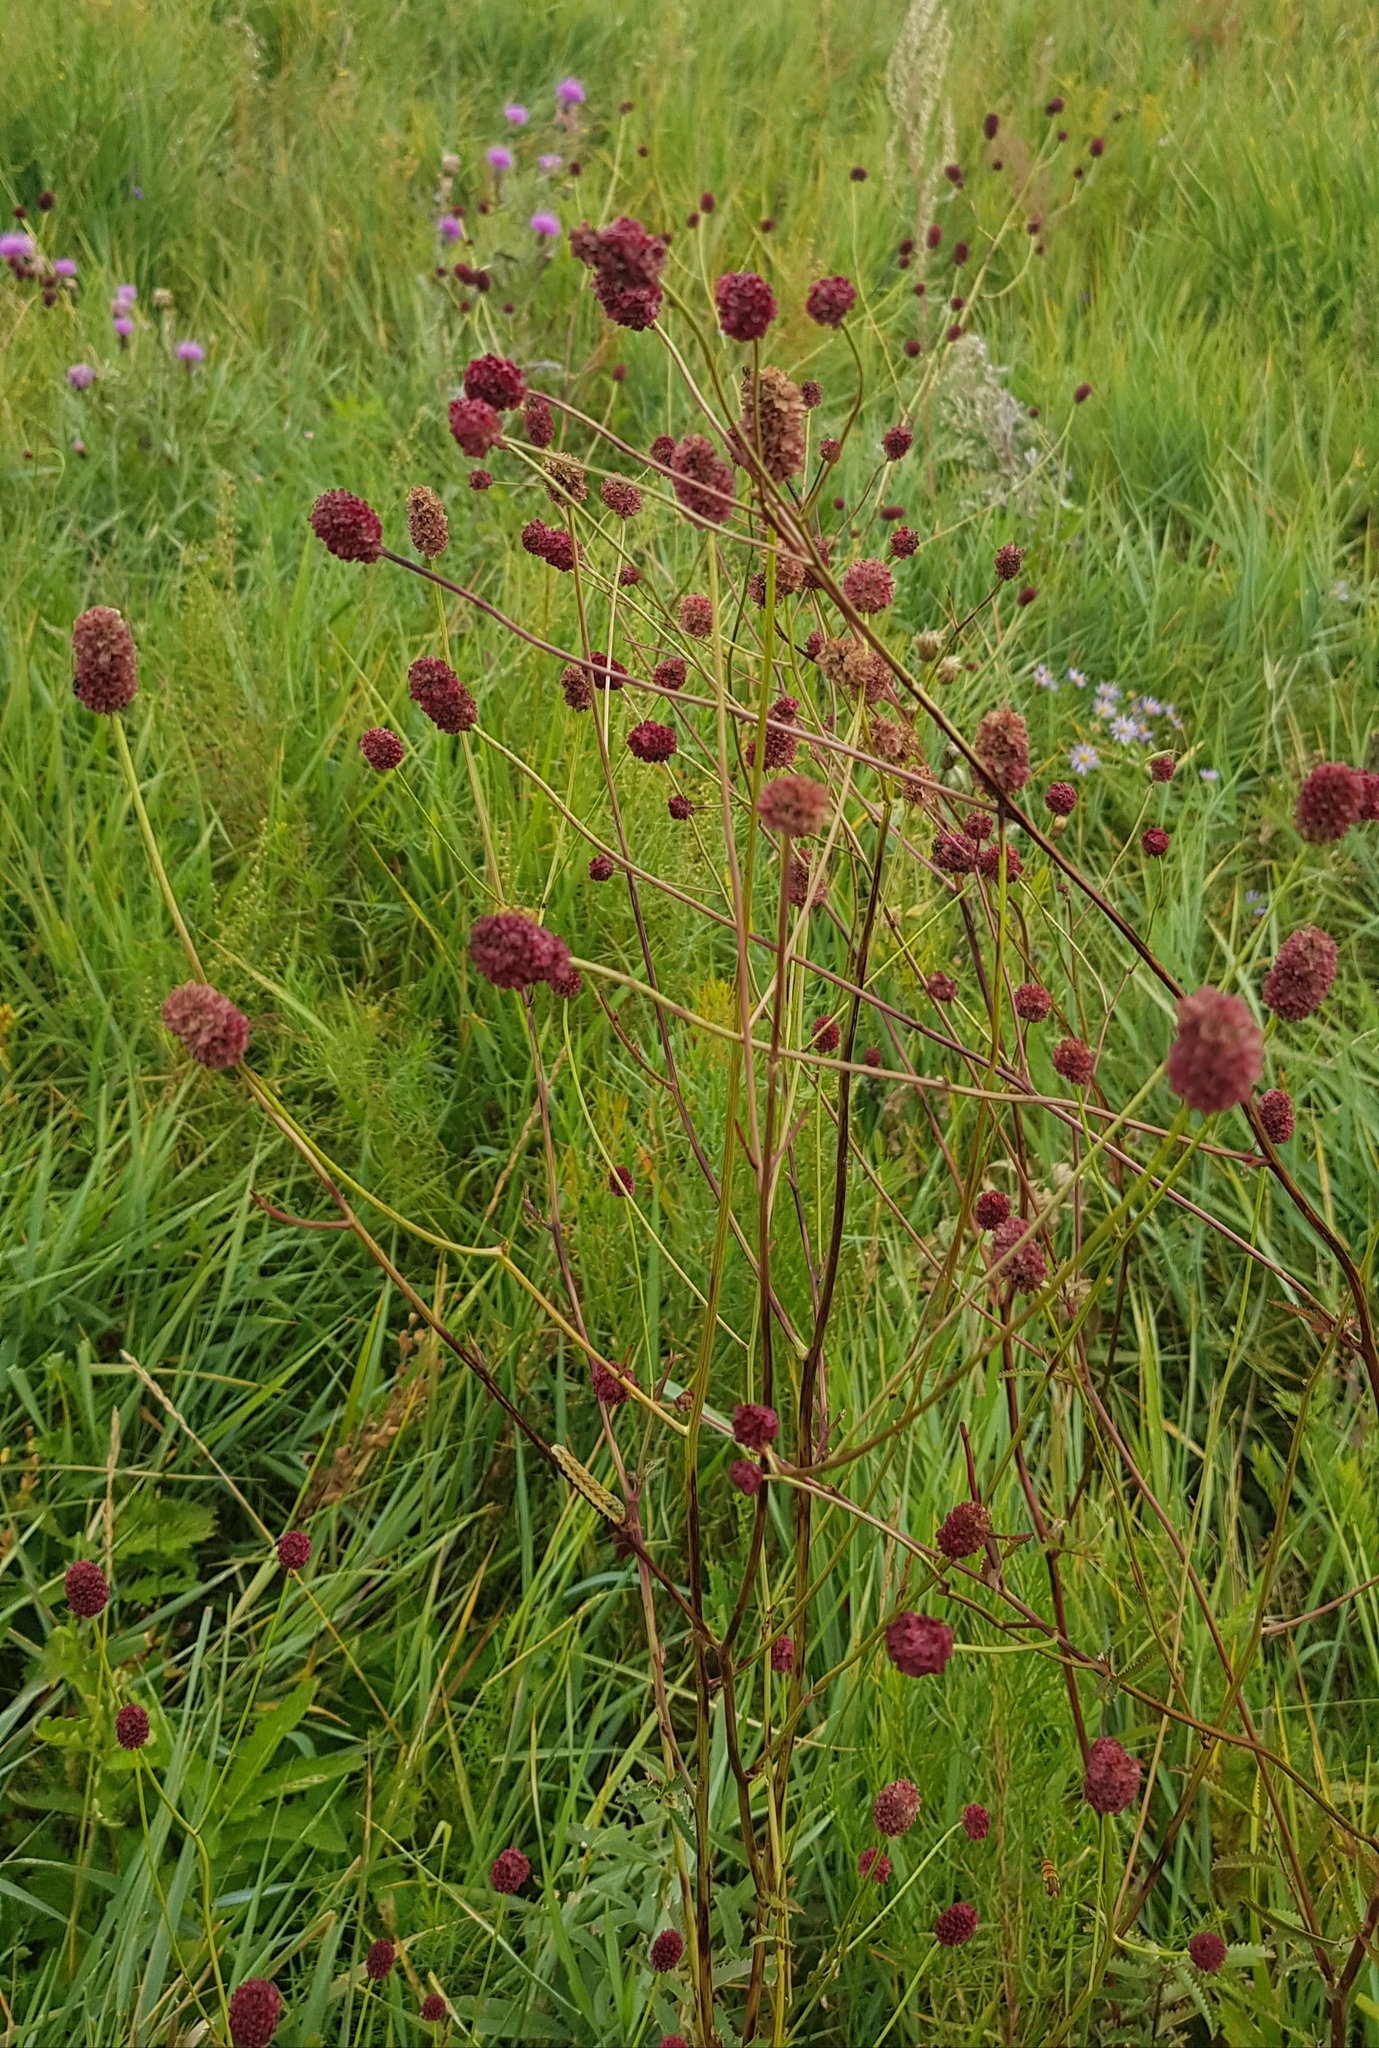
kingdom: Plantae
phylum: Tracheophyta
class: Magnoliopsida
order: Rosales
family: Rosaceae
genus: Sanguisorba
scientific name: Sanguisorba officinalis
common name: Great burnet
